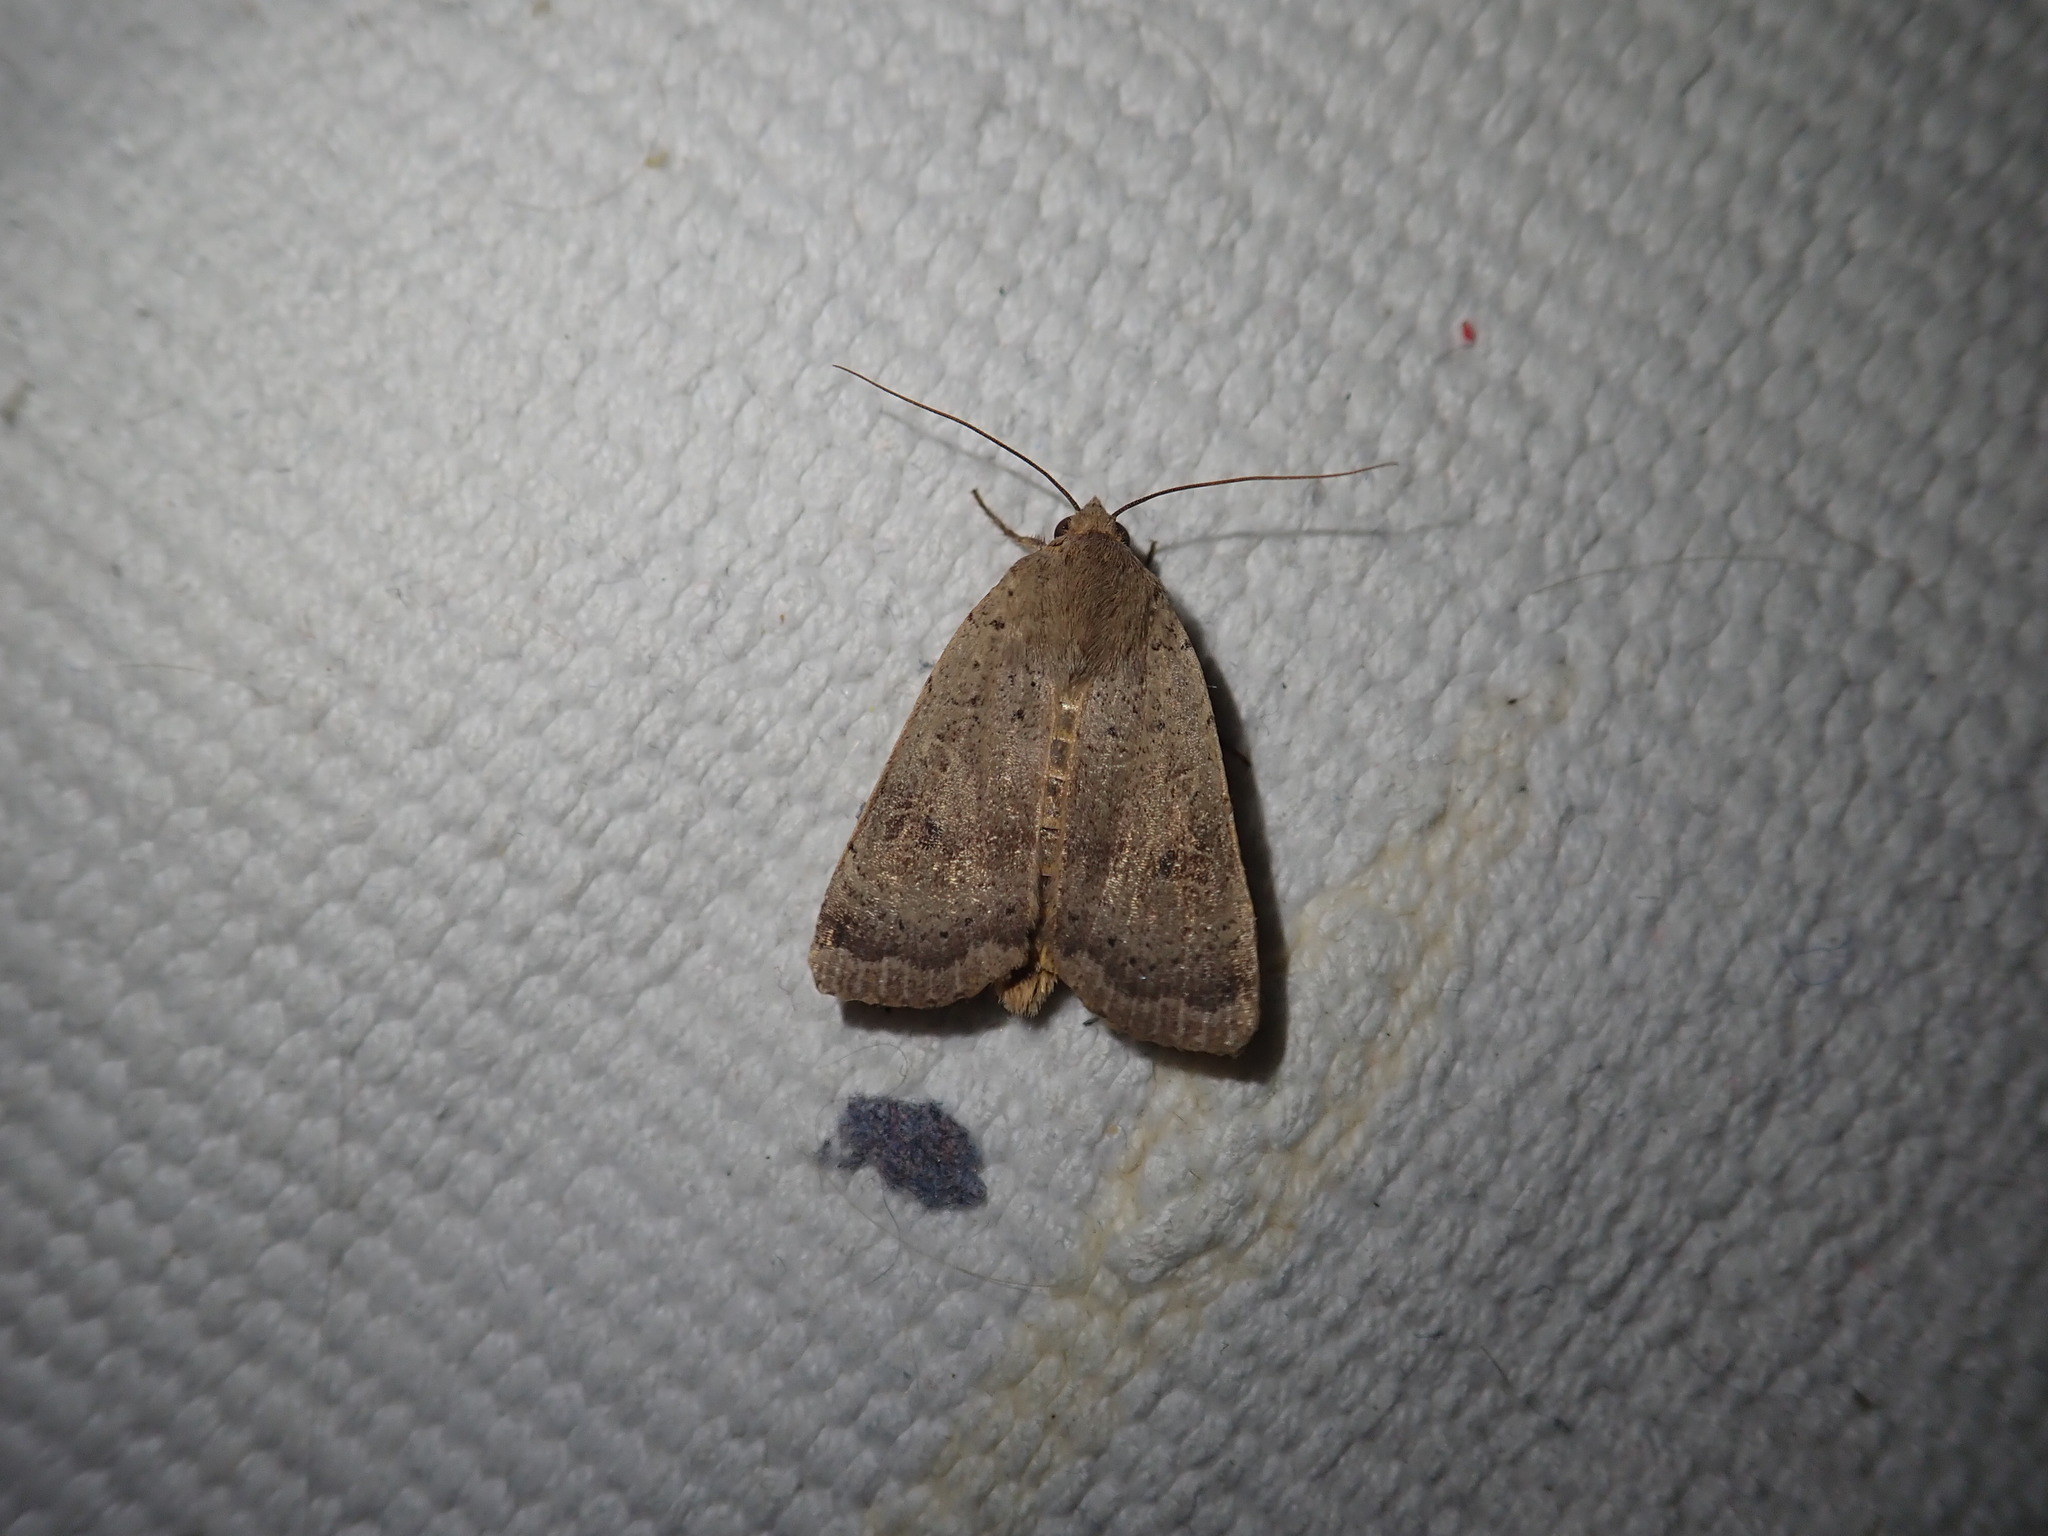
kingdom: Animalia
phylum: Arthropoda
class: Insecta
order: Lepidoptera
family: Noctuidae
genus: Noctua
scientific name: Noctua comes
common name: Lesser yellow underwing
